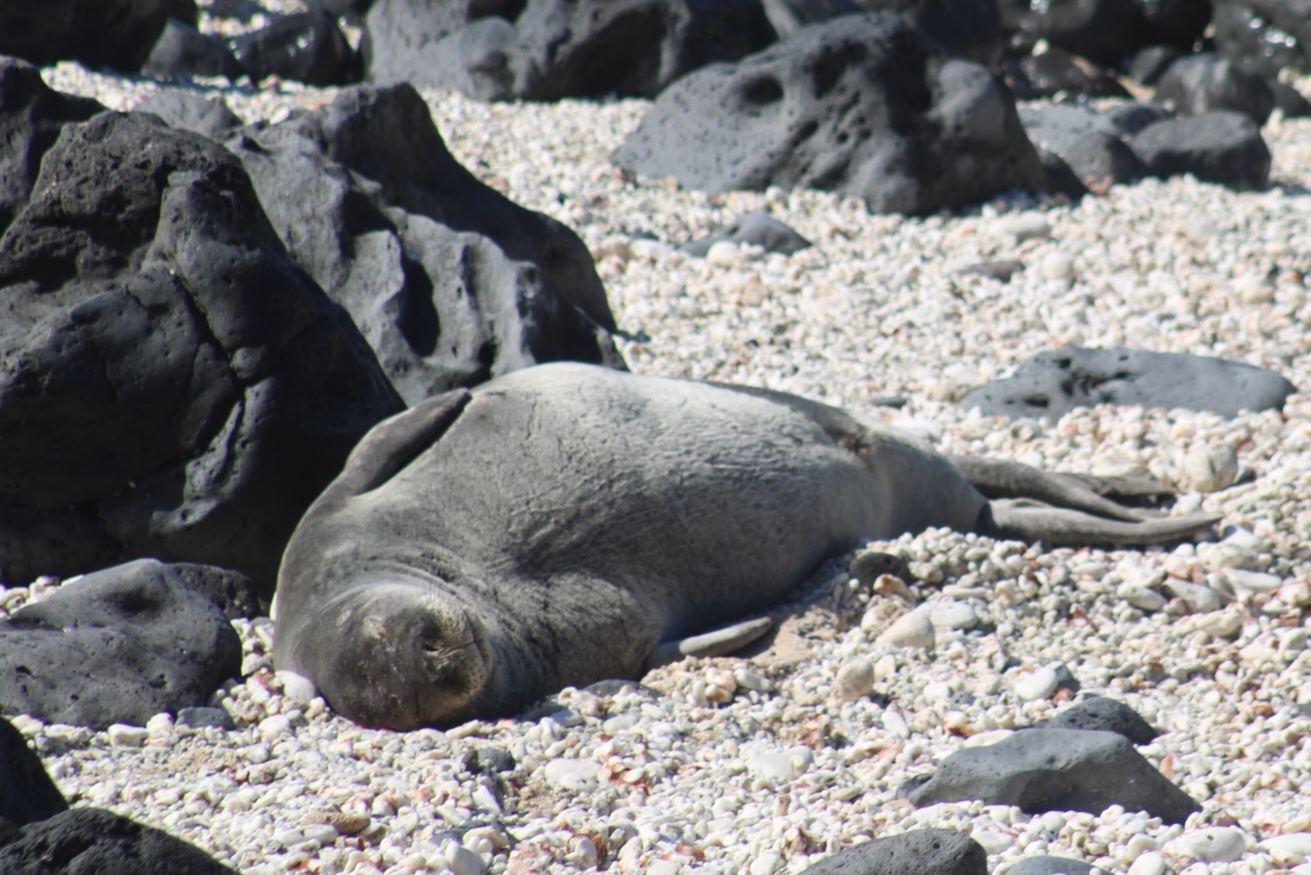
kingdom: Animalia
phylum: Chordata
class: Mammalia
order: Carnivora
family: Phocidae
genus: Neomonachus
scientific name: Neomonachus schauinslandi
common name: Hawaiian monk seal
